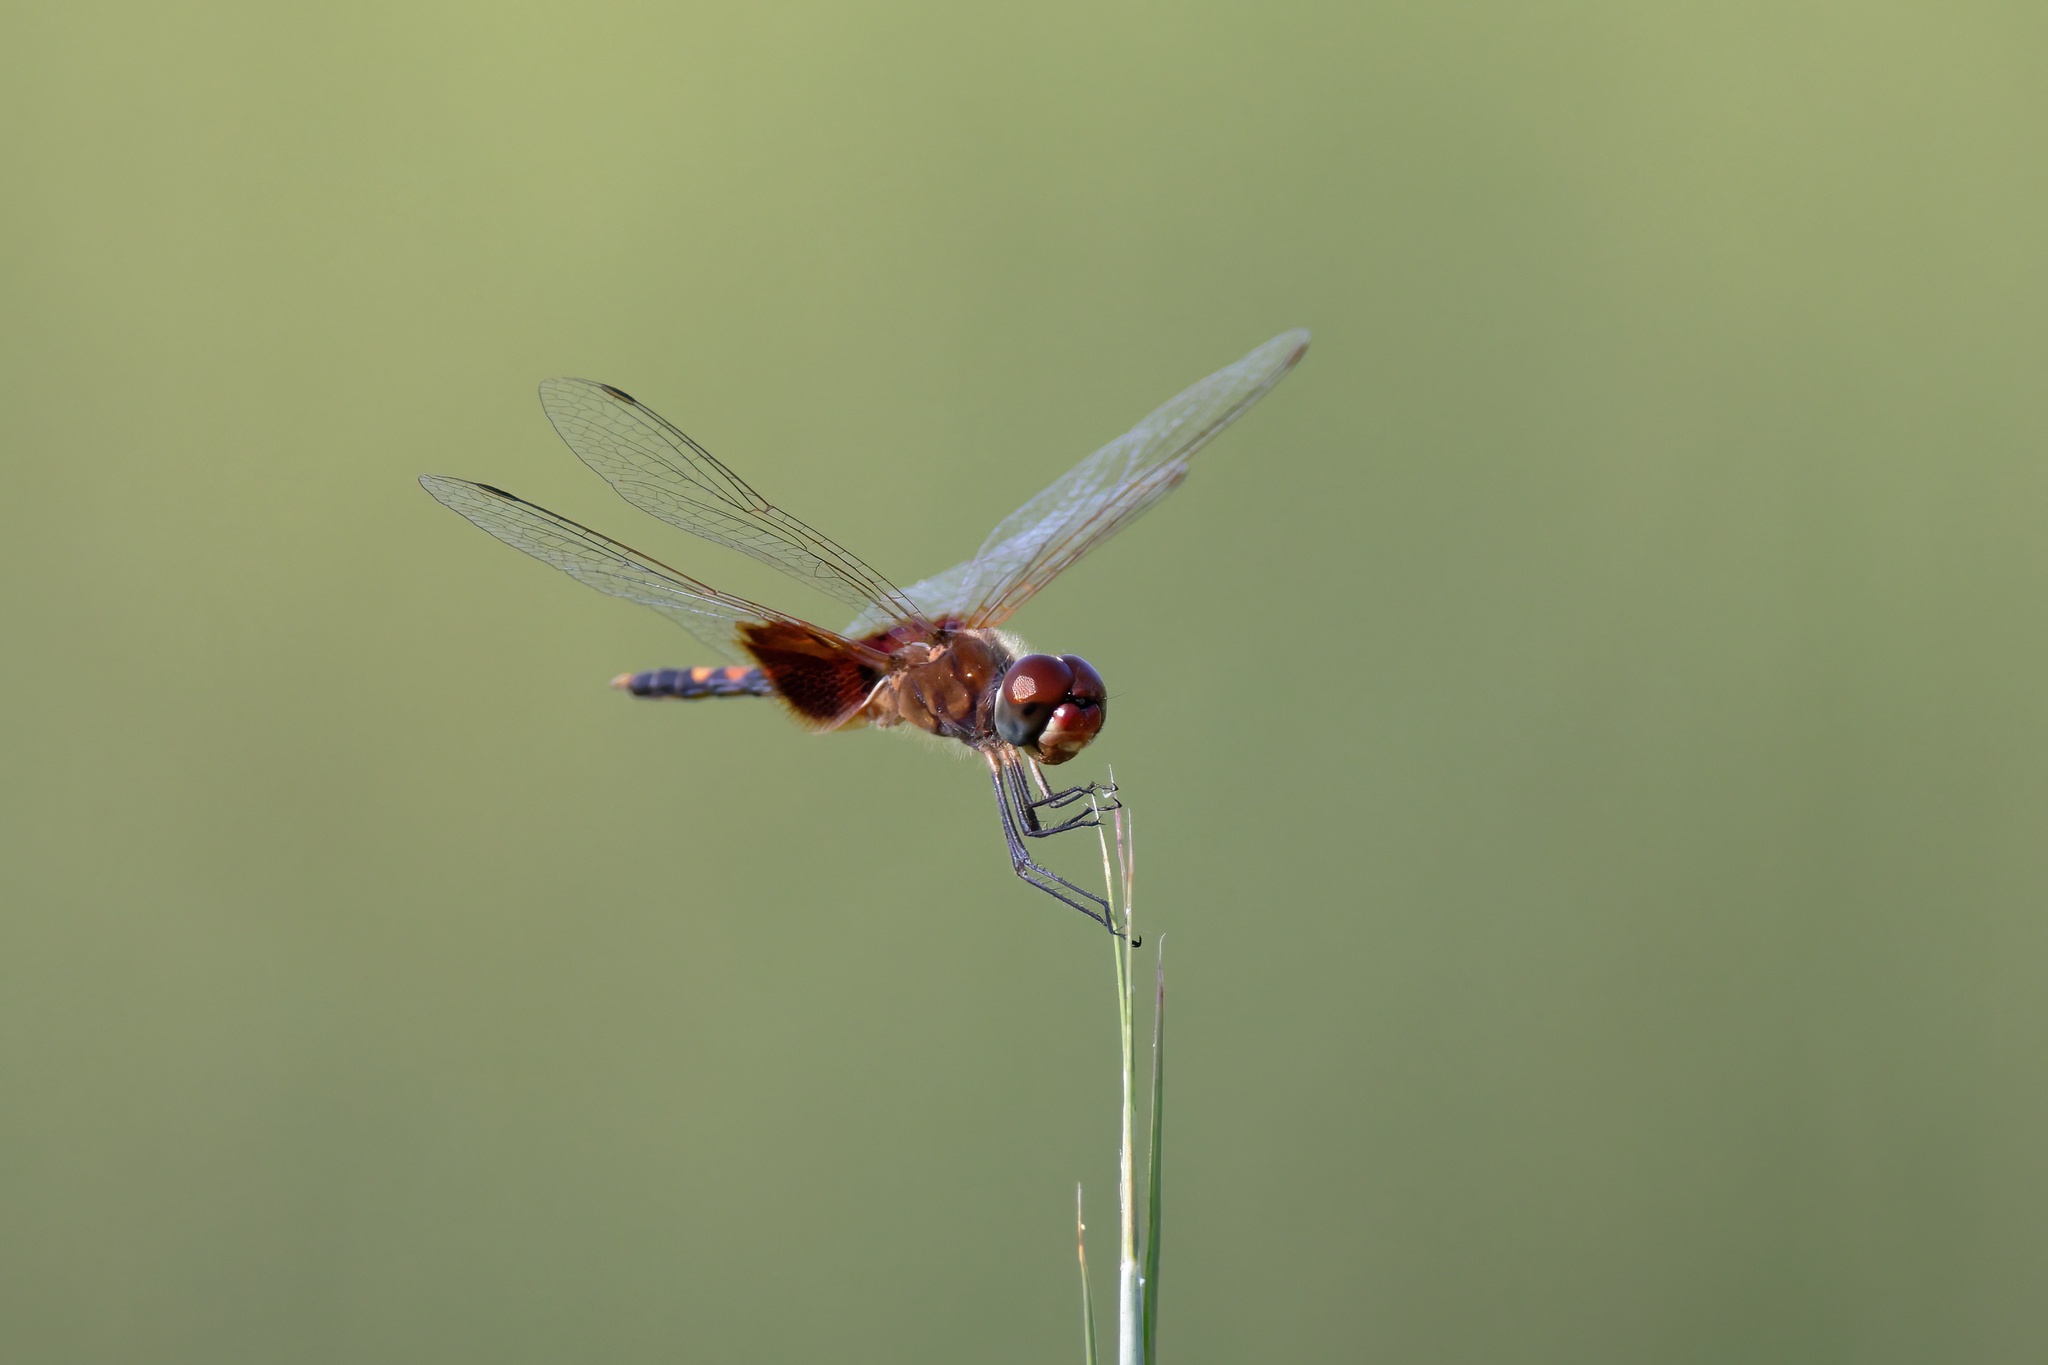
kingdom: Animalia
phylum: Arthropoda
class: Insecta
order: Odonata
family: Libellulidae
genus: Celithemis
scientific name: Celithemis amanda
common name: Amanda's pennant
